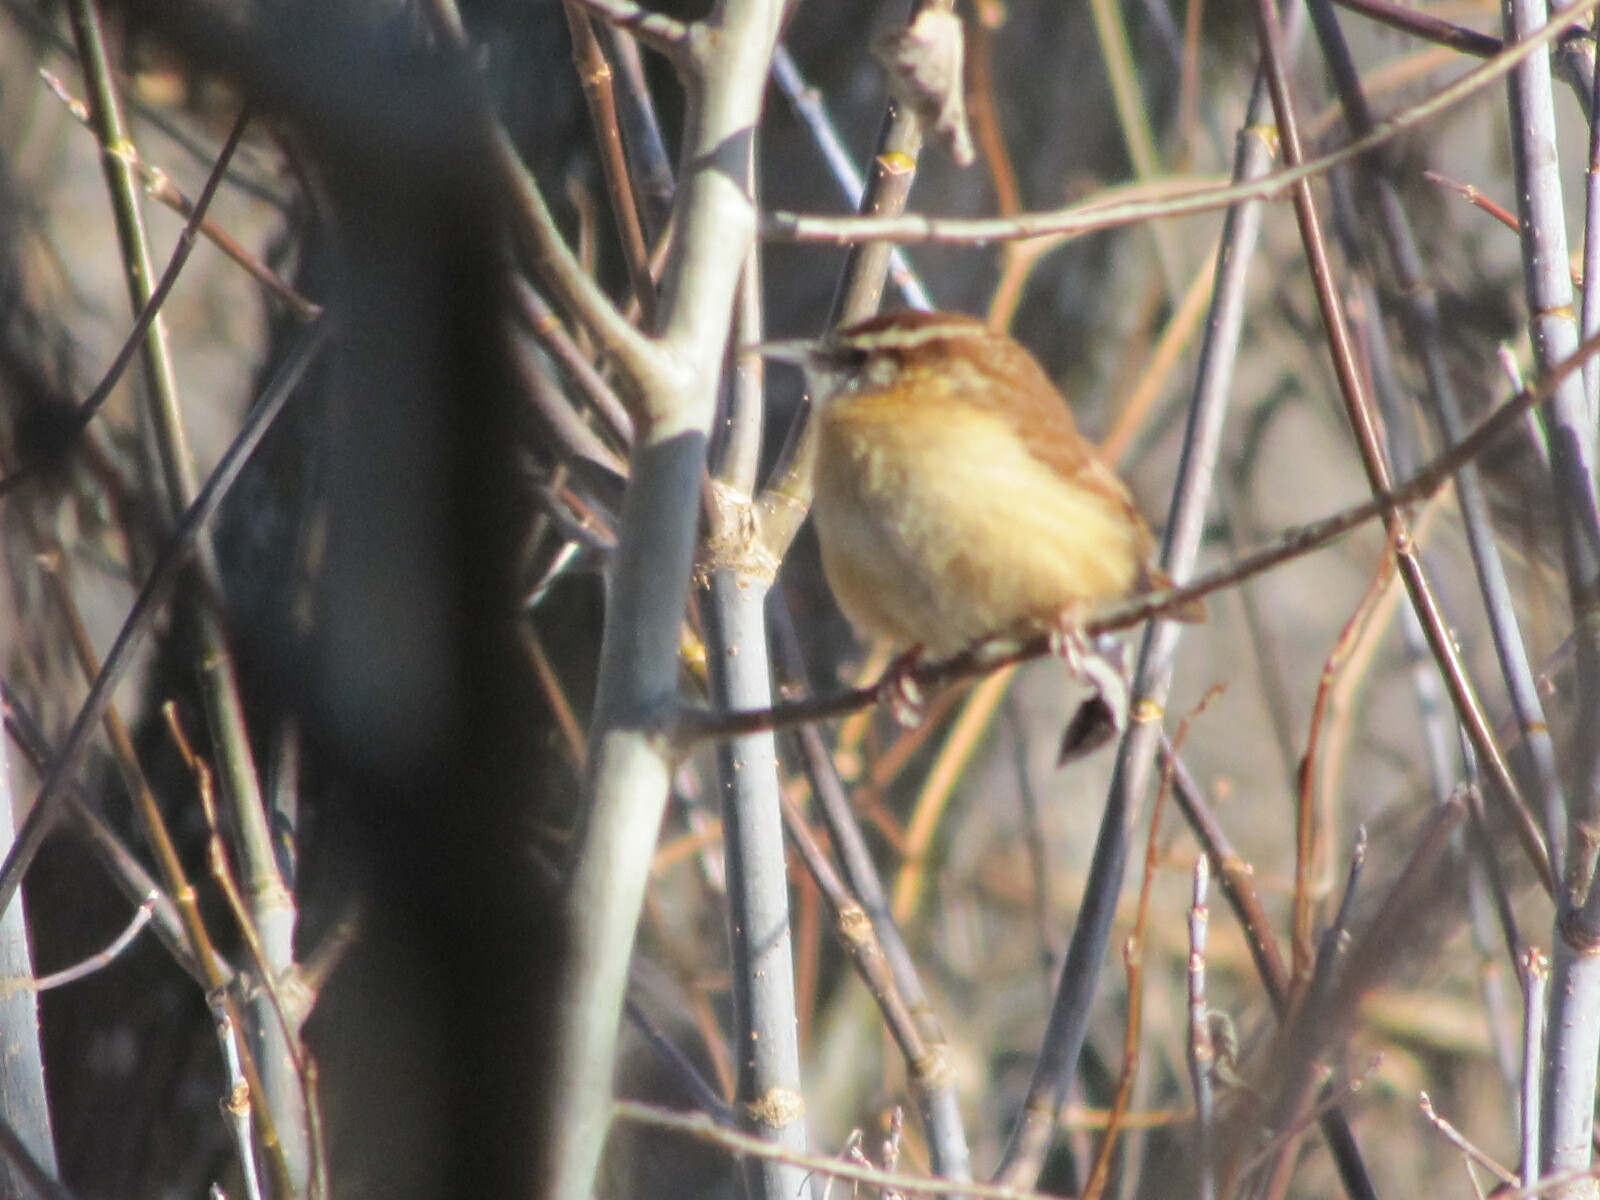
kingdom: Animalia
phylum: Chordata
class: Aves
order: Passeriformes
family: Troglodytidae
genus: Thryothorus
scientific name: Thryothorus ludovicianus
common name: Carolina wren
